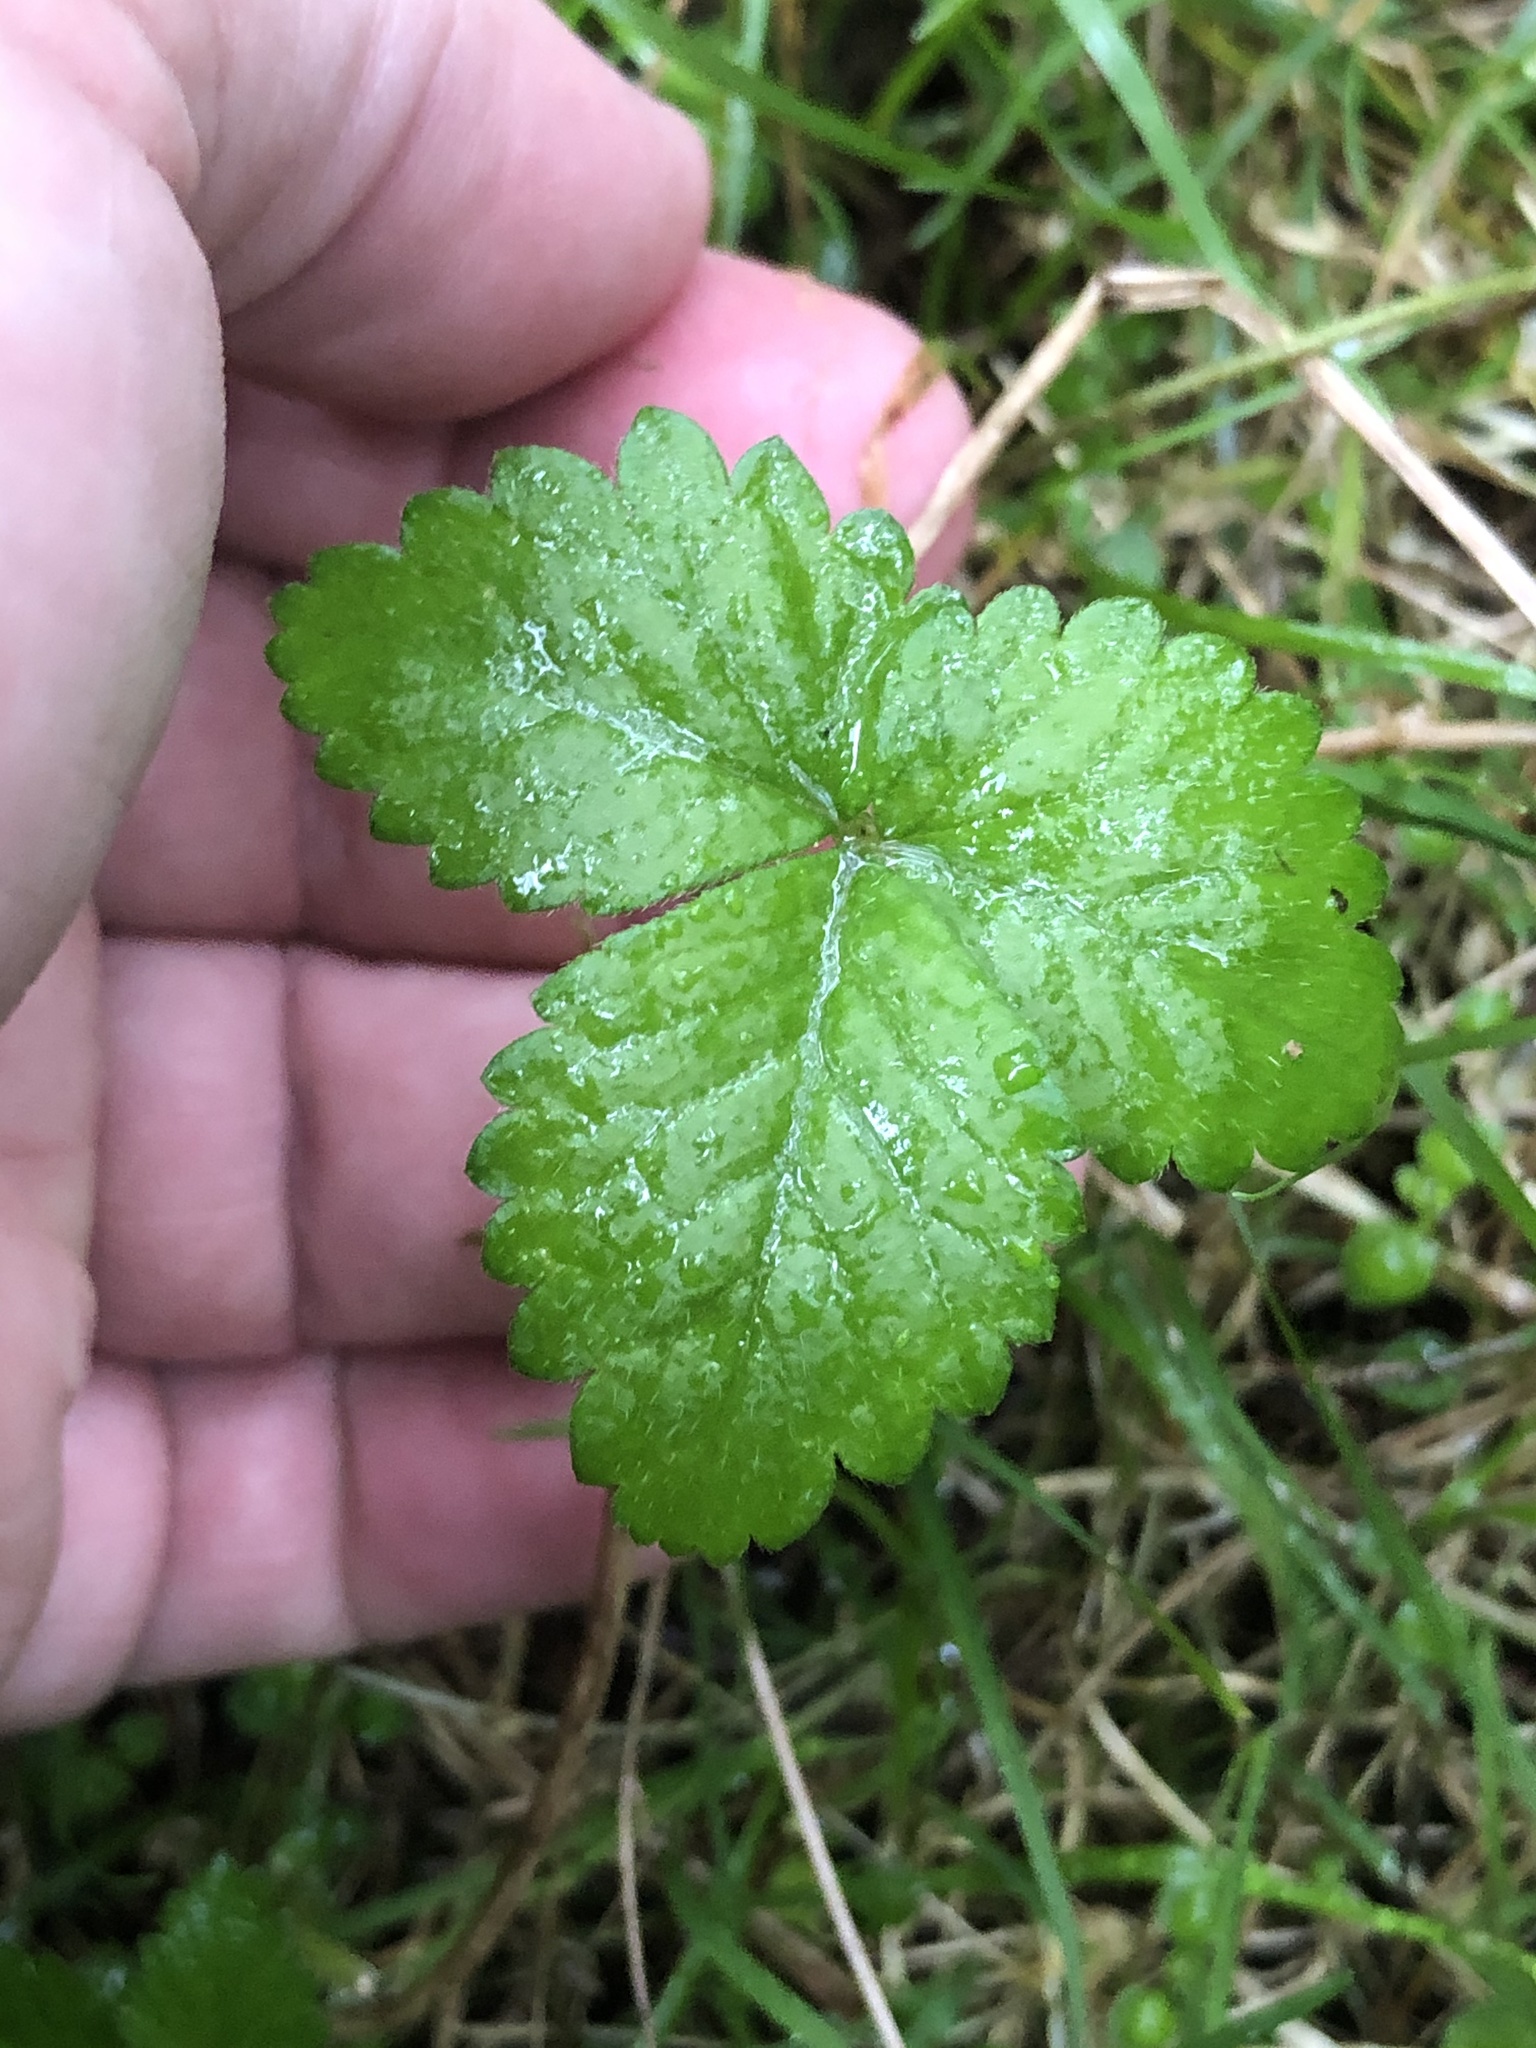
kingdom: Plantae
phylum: Tracheophyta
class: Magnoliopsida
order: Rosales
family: Rosaceae
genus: Potentilla
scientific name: Potentilla indica
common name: Yellow-flowered strawberry
